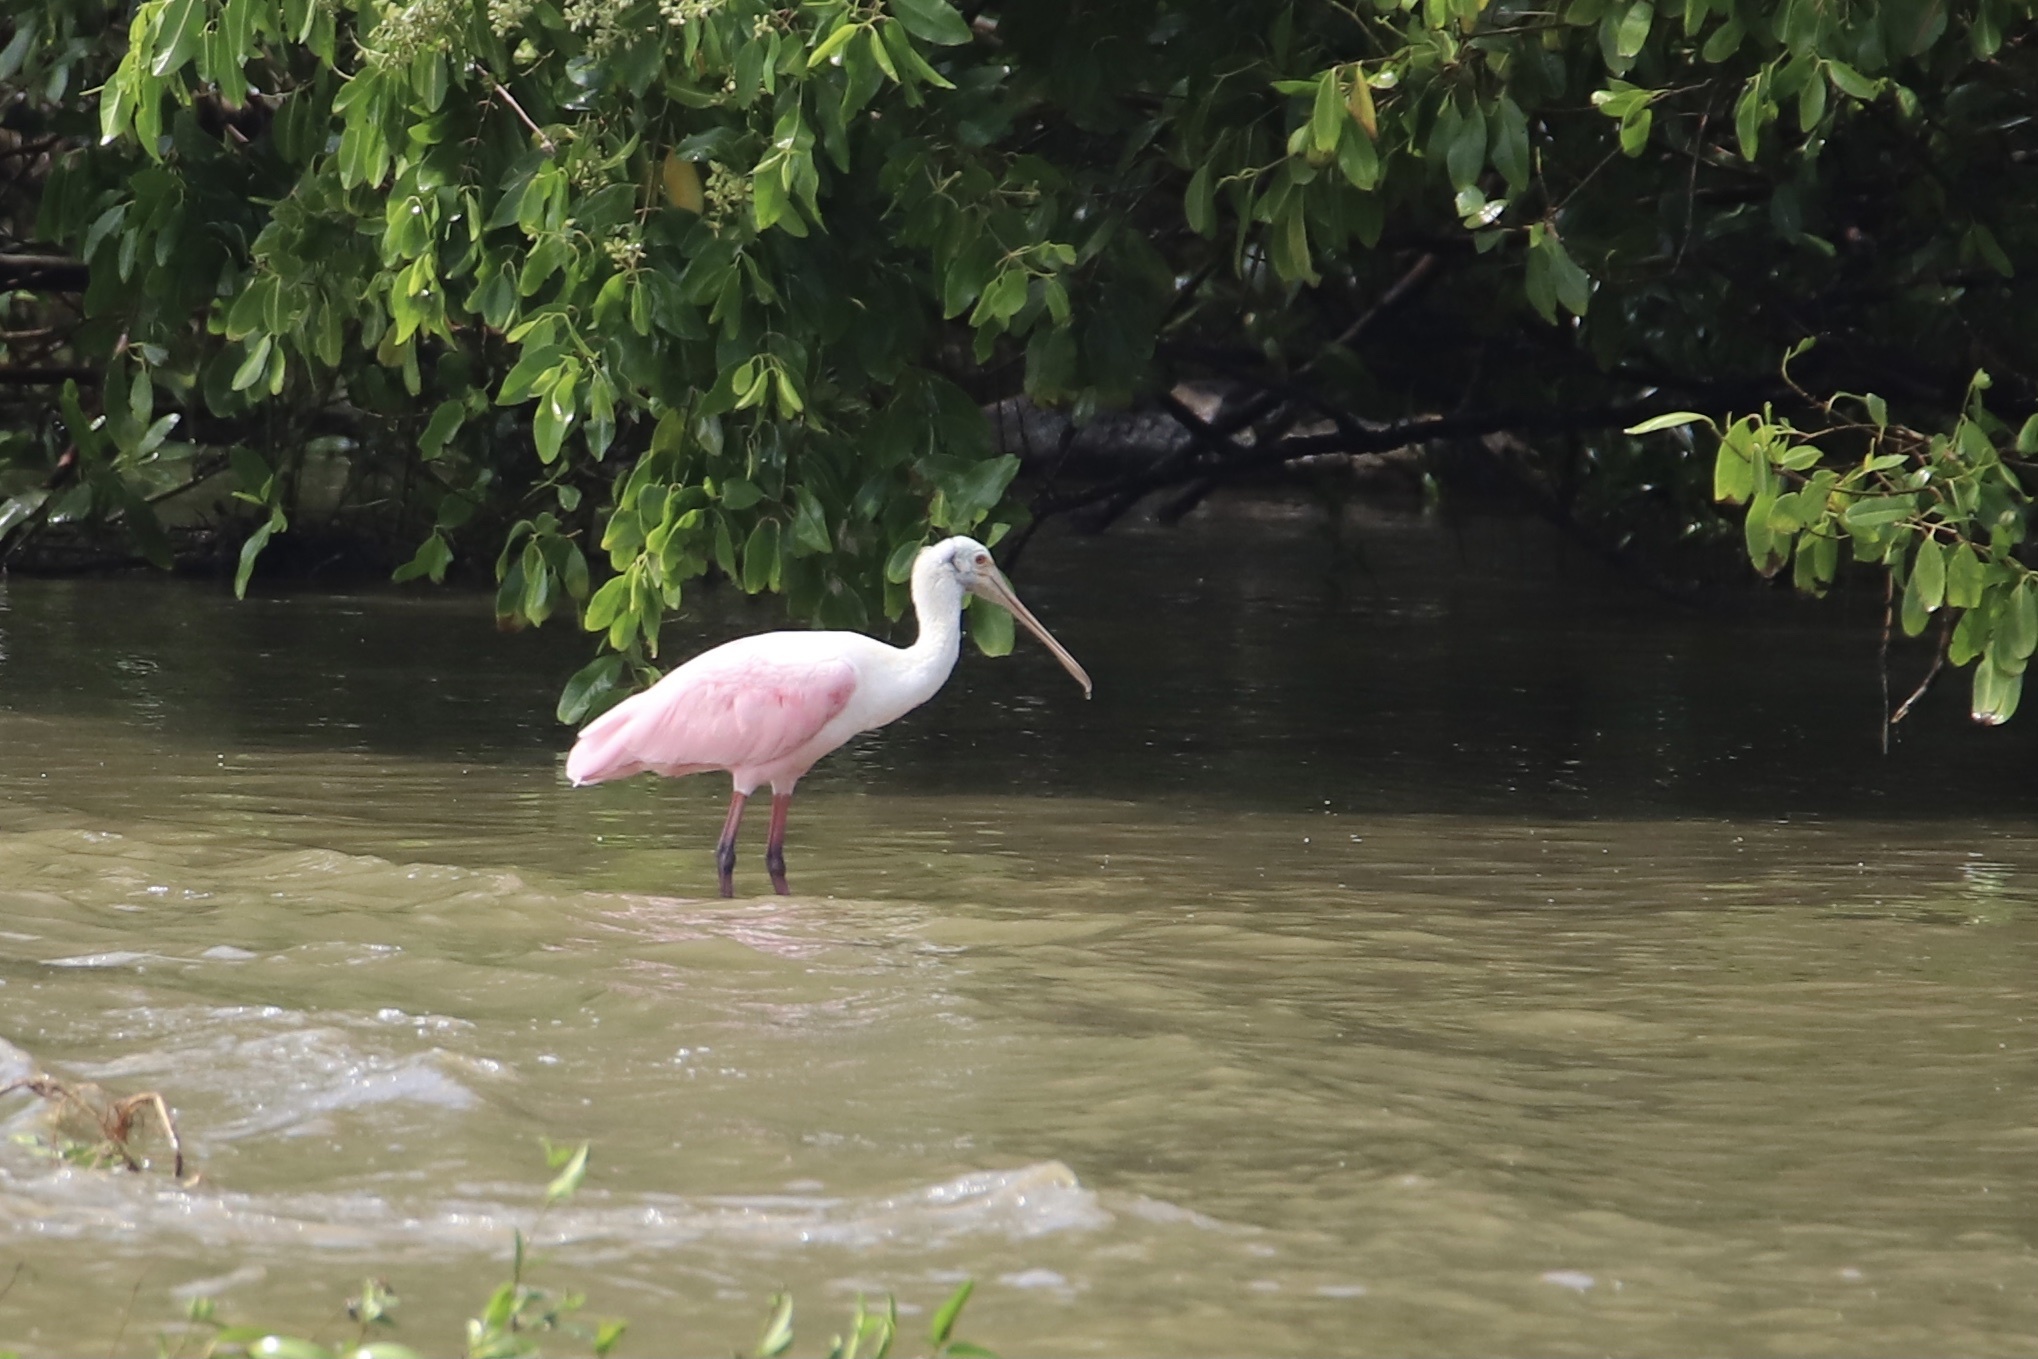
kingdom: Animalia
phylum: Chordata
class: Aves
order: Pelecaniformes
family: Threskiornithidae
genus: Platalea
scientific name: Platalea ajaja
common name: Roseate spoonbill
